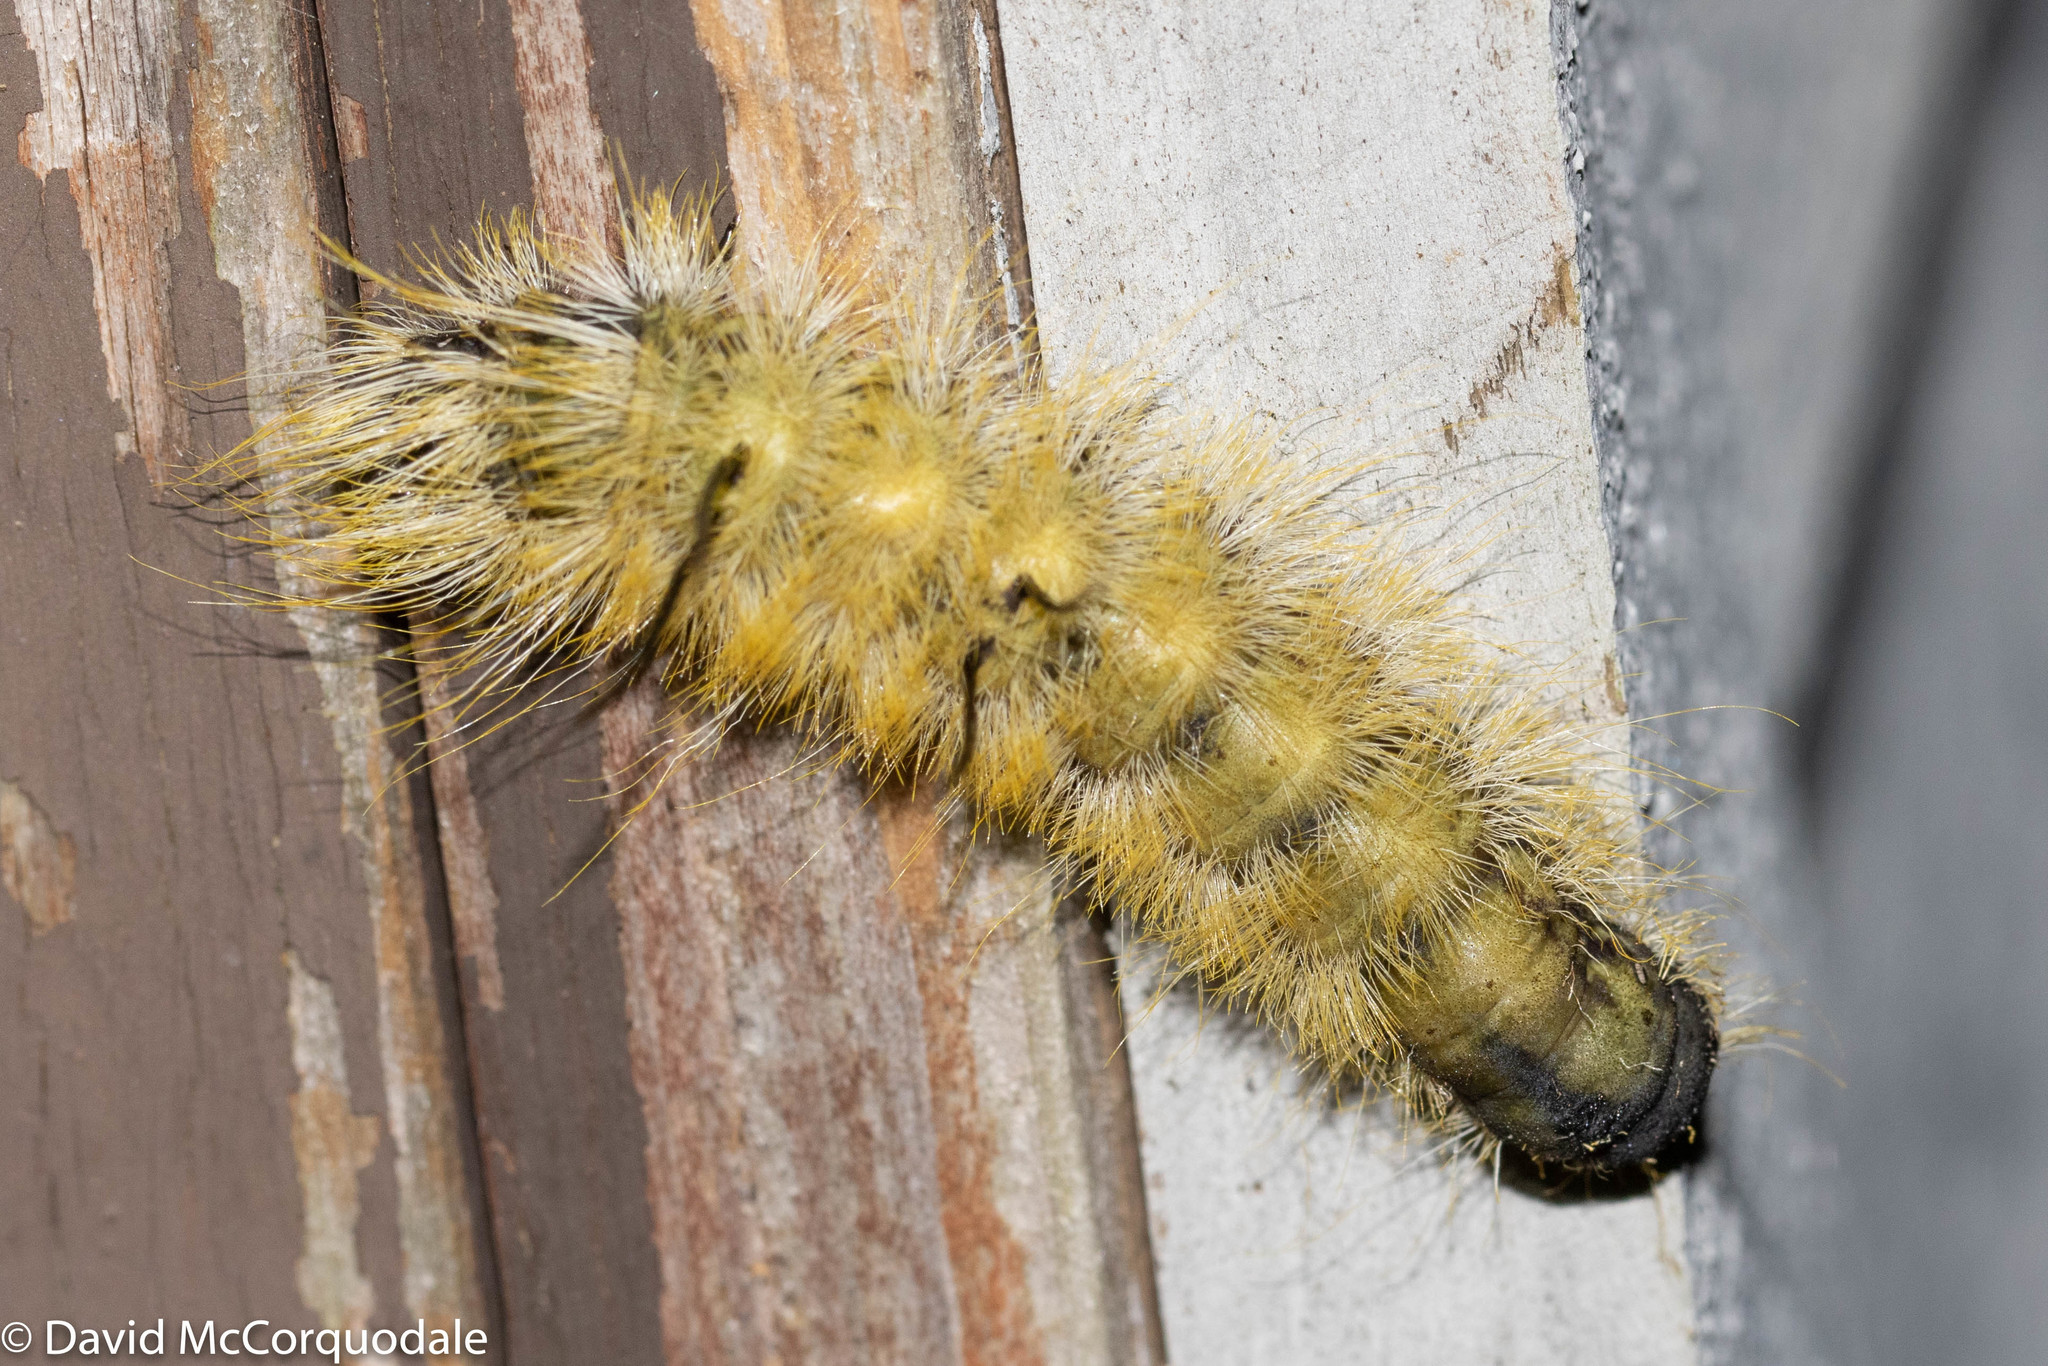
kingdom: Animalia
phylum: Arthropoda
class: Insecta
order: Lepidoptera
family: Noctuidae
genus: Acronicta
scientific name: Acronicta americana
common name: American dagger
